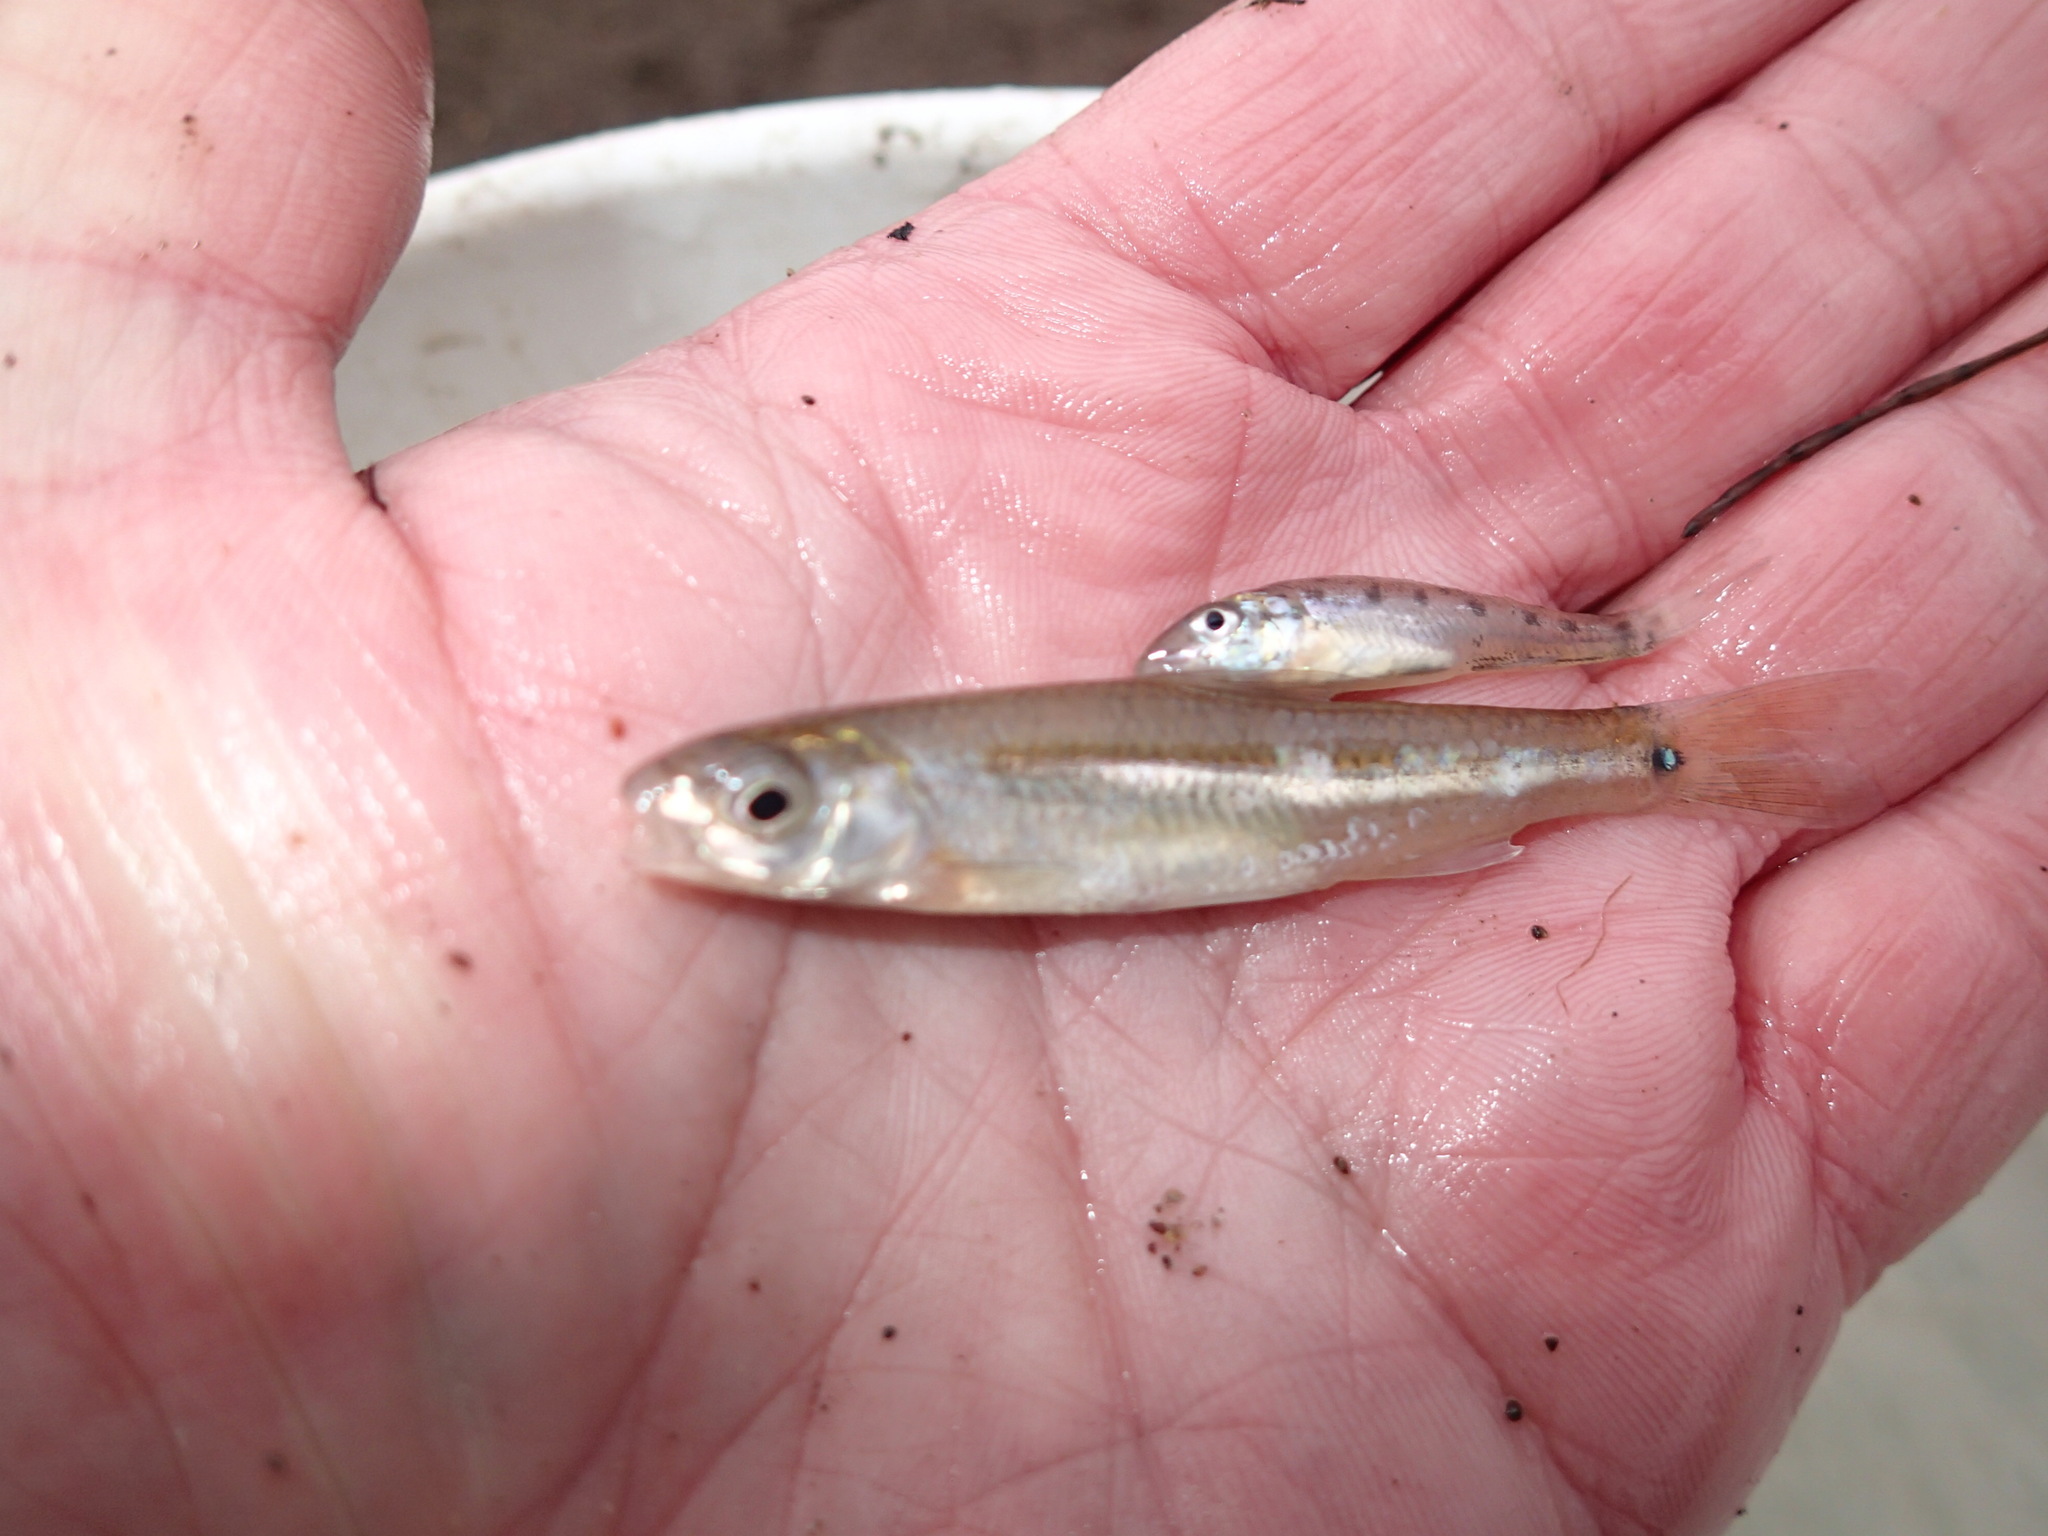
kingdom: Animalia
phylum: Chordata
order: Cypriniformes
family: Cyprinidae
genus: Notropis
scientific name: Notropis
